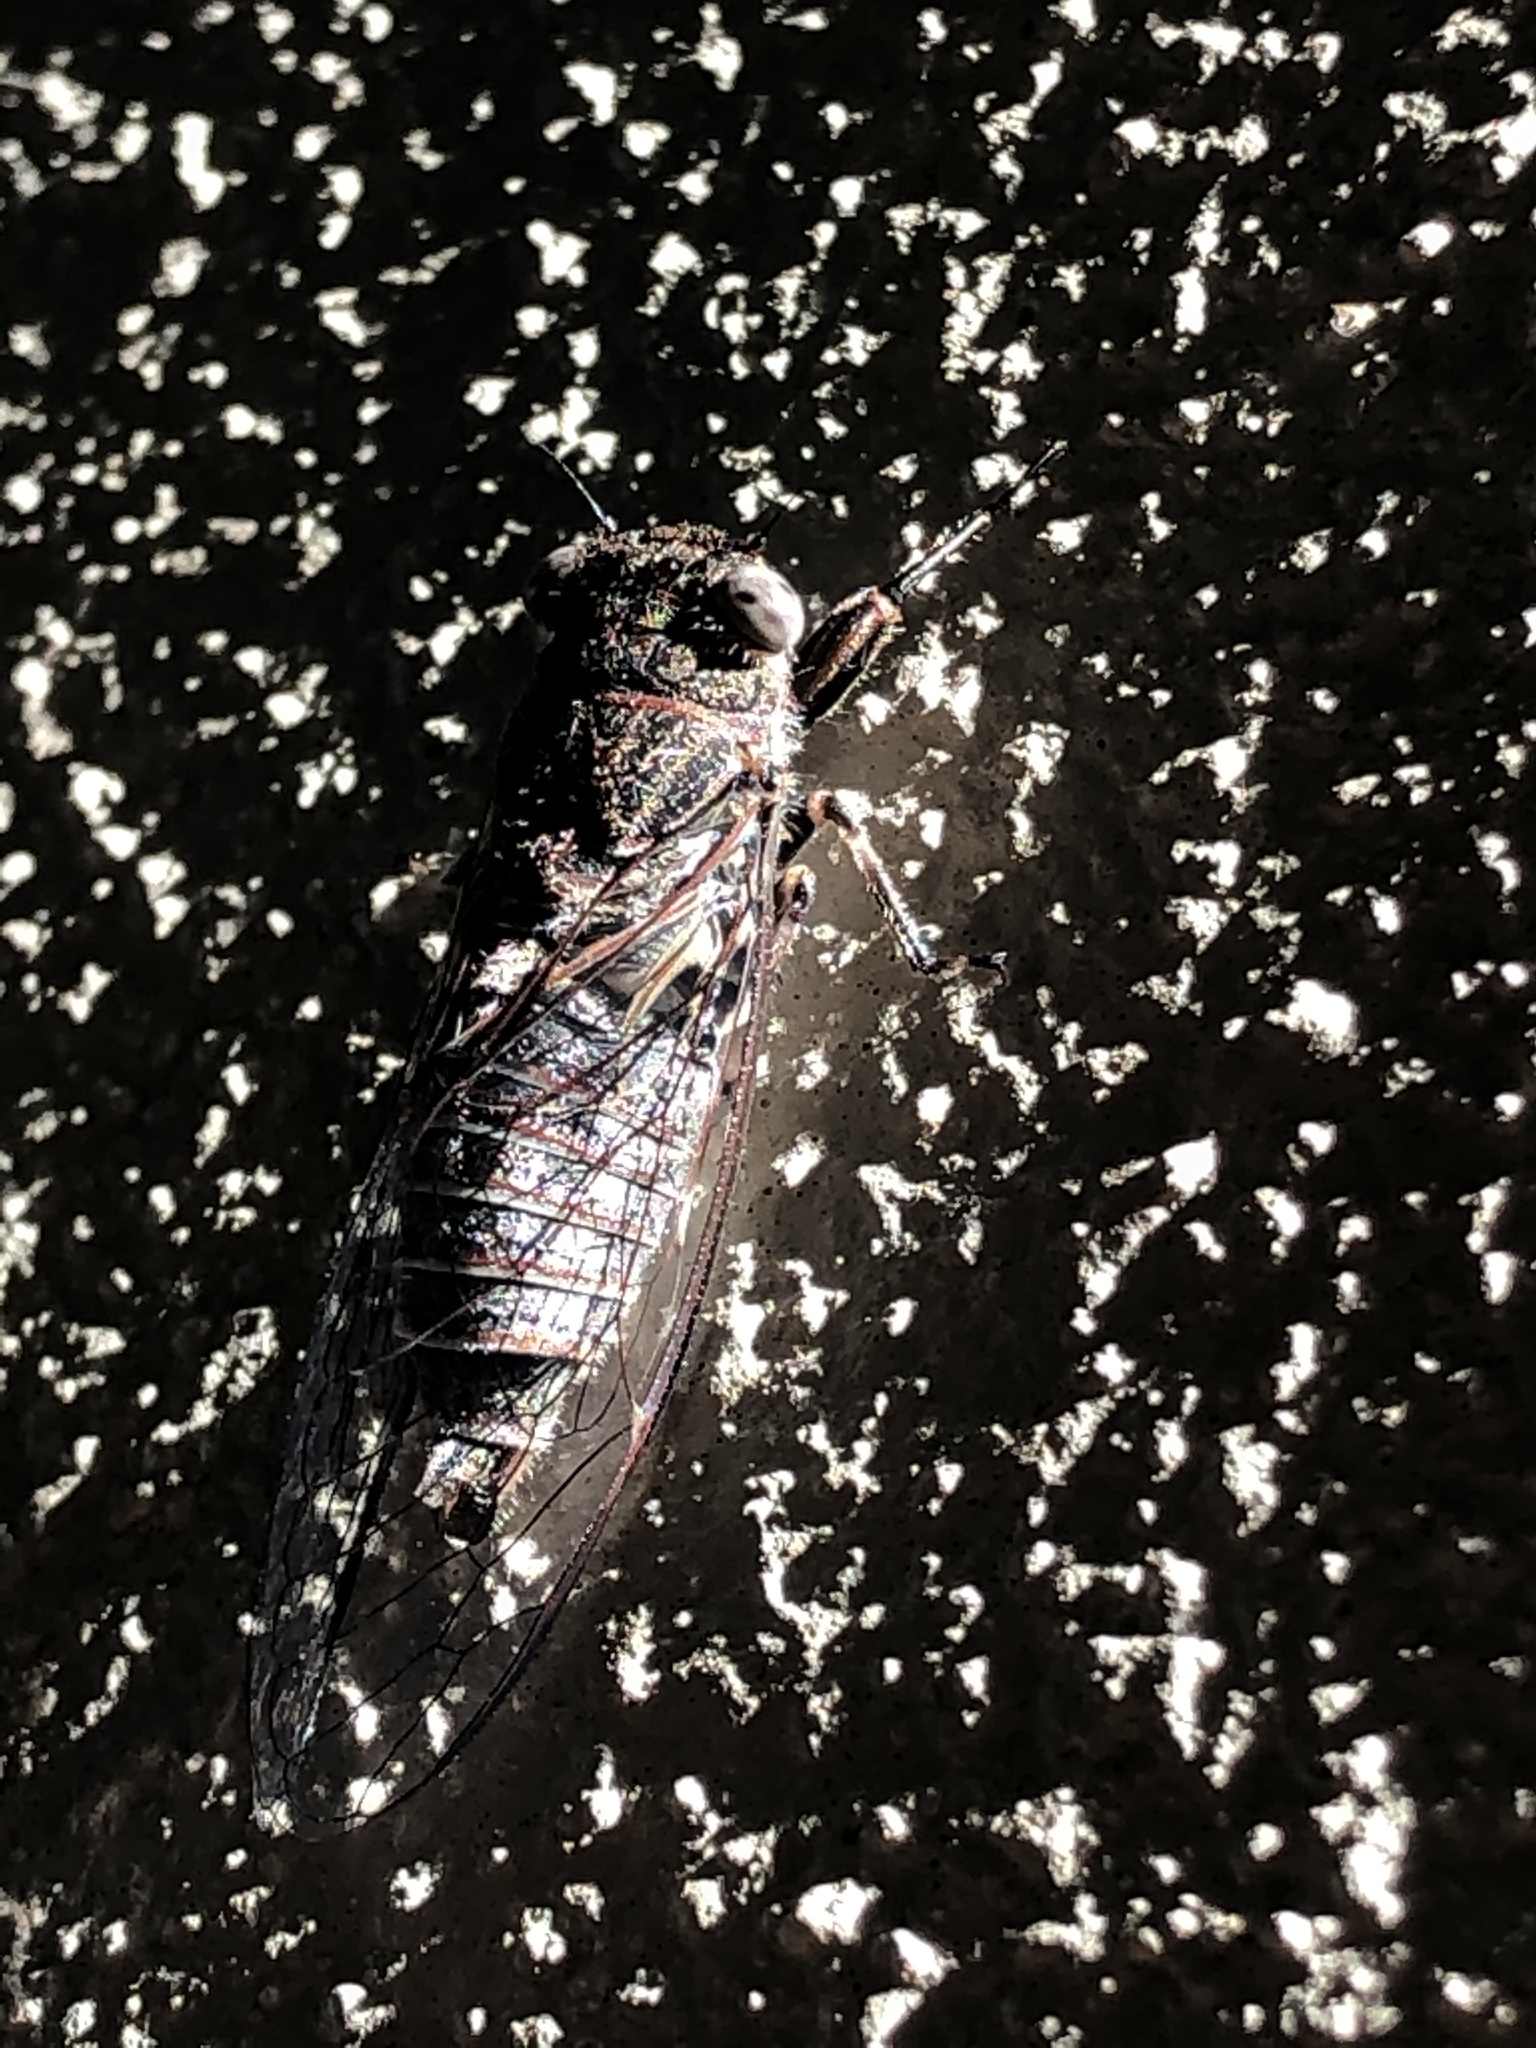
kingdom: Animalia
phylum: Arthropoda
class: Insecta
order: Hemiptera
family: Cicadidae
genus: Atrapsalta
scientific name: Atrapsalta
